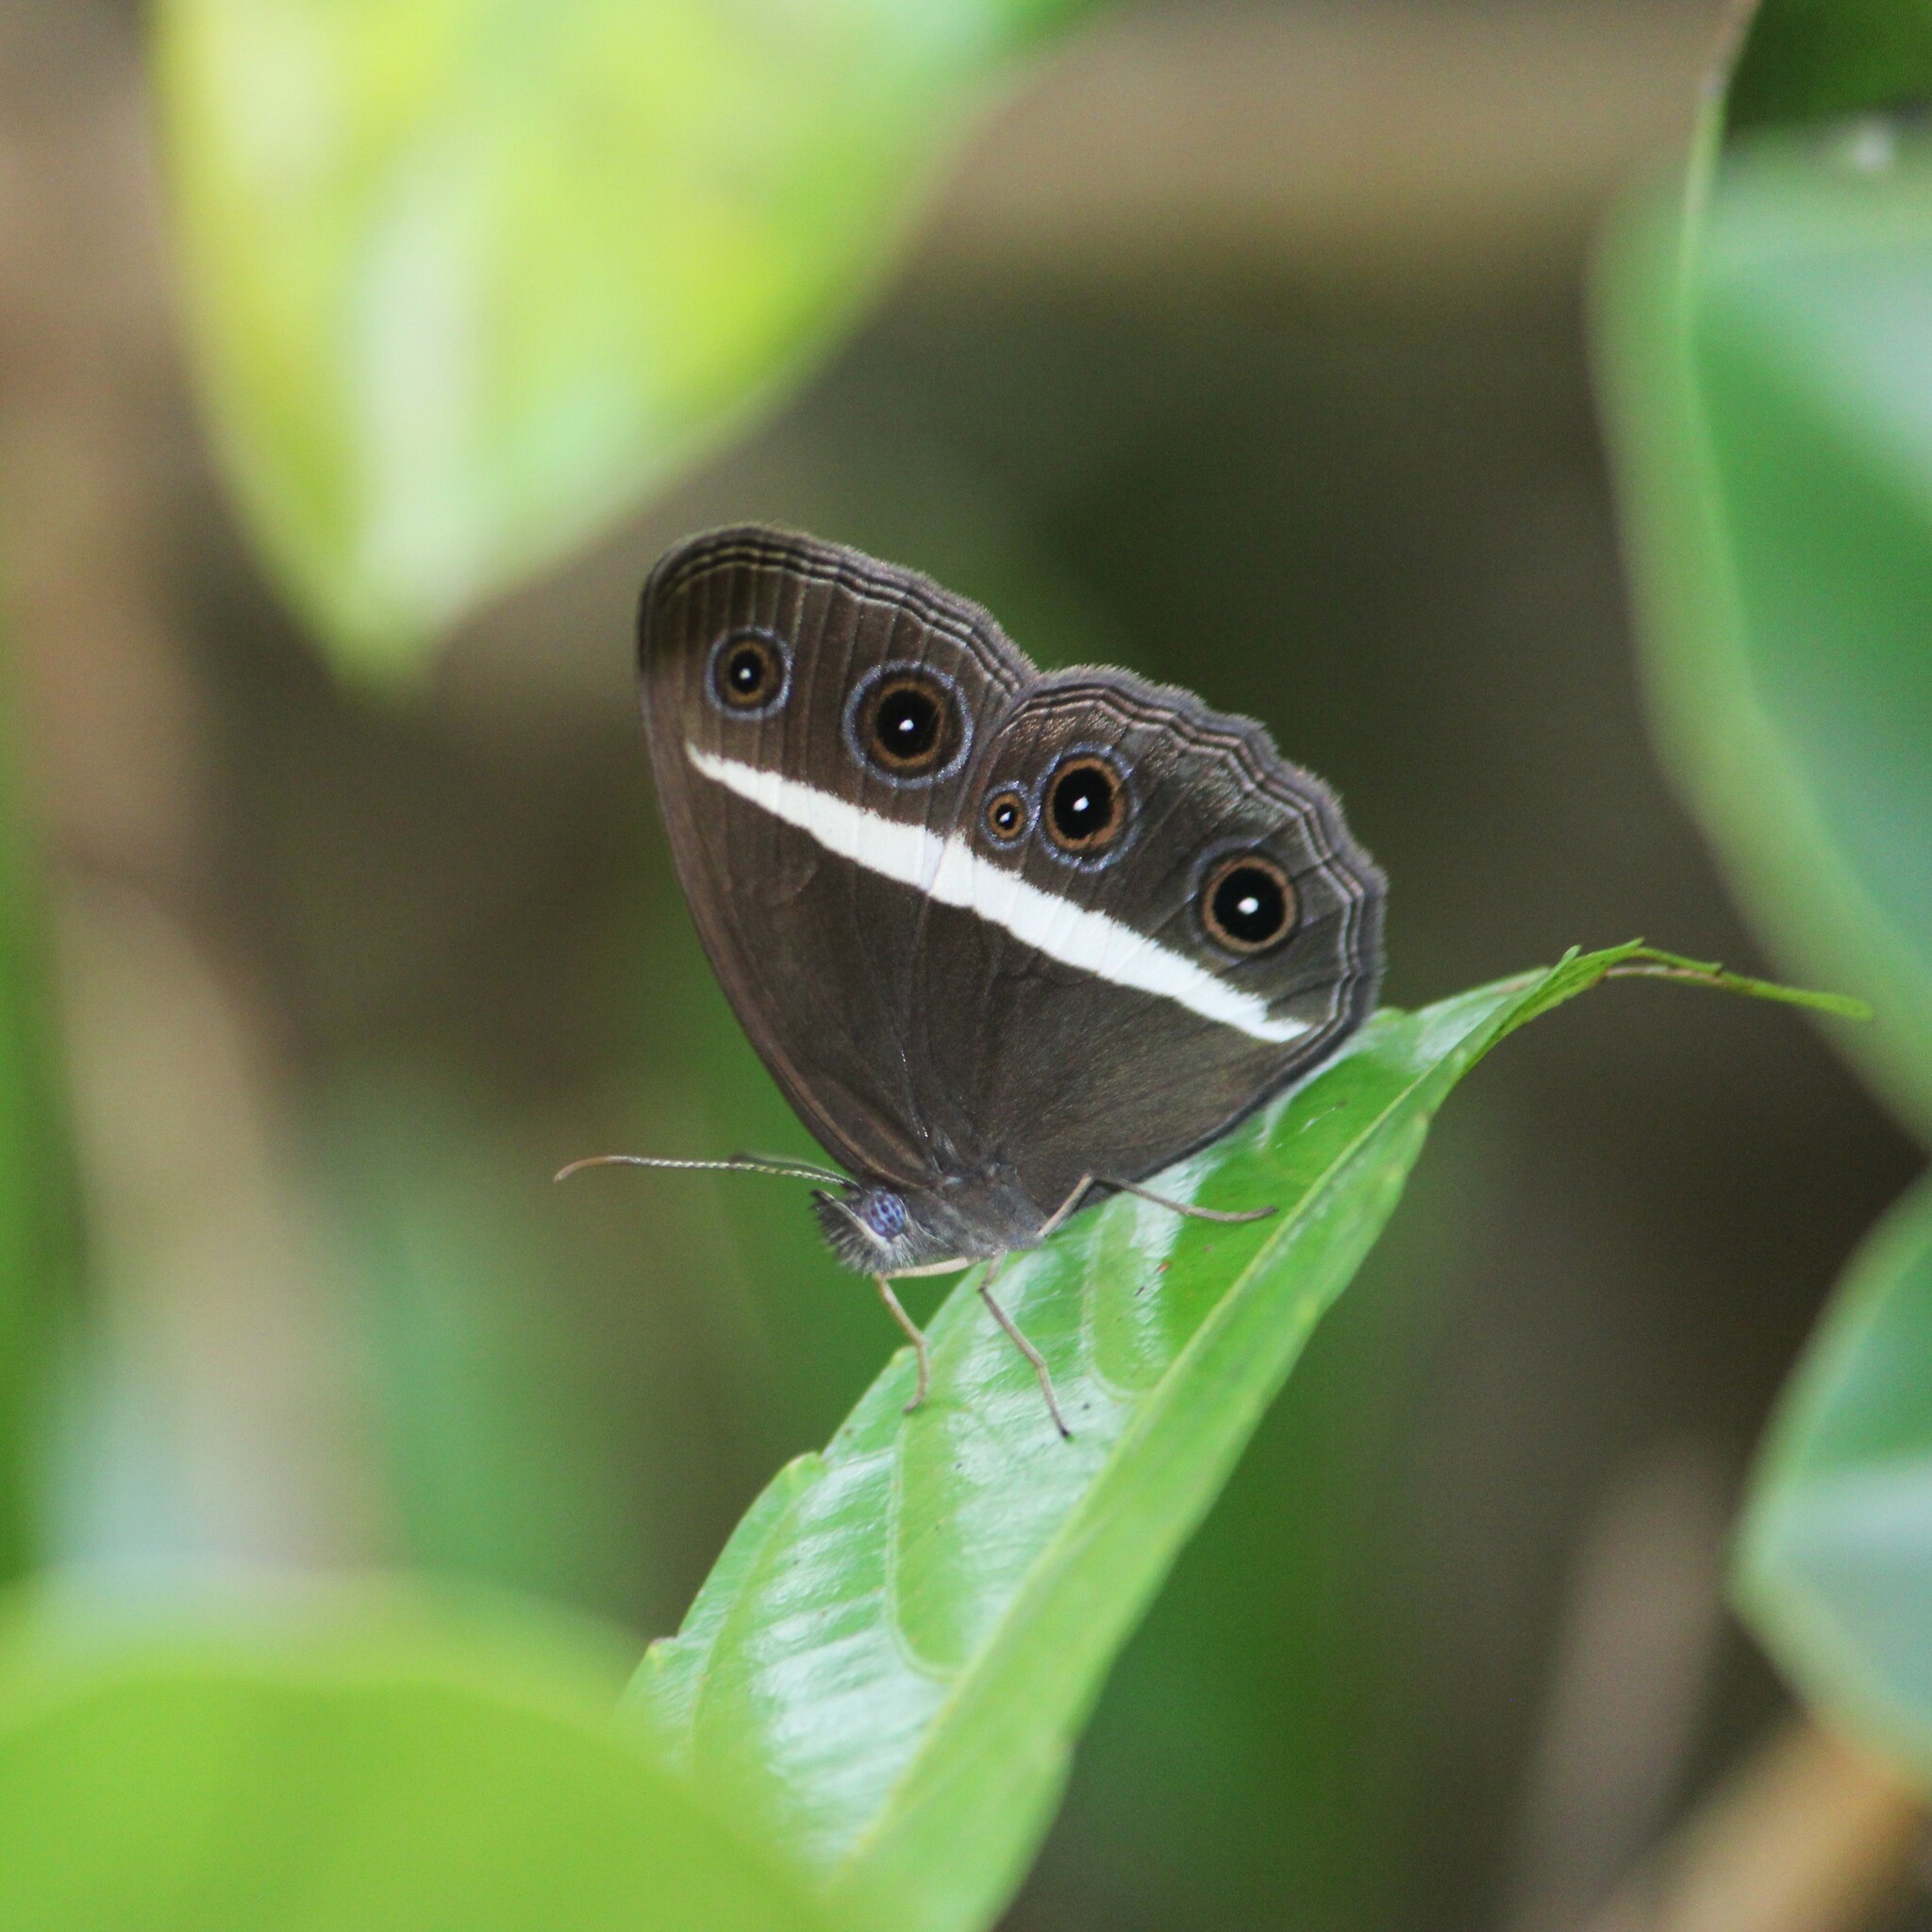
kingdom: Animalia
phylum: Arthropoda
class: Insecta
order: Lepidoptera
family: Nymphalidae
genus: Orsotriaena
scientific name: Orsotriaena medus
